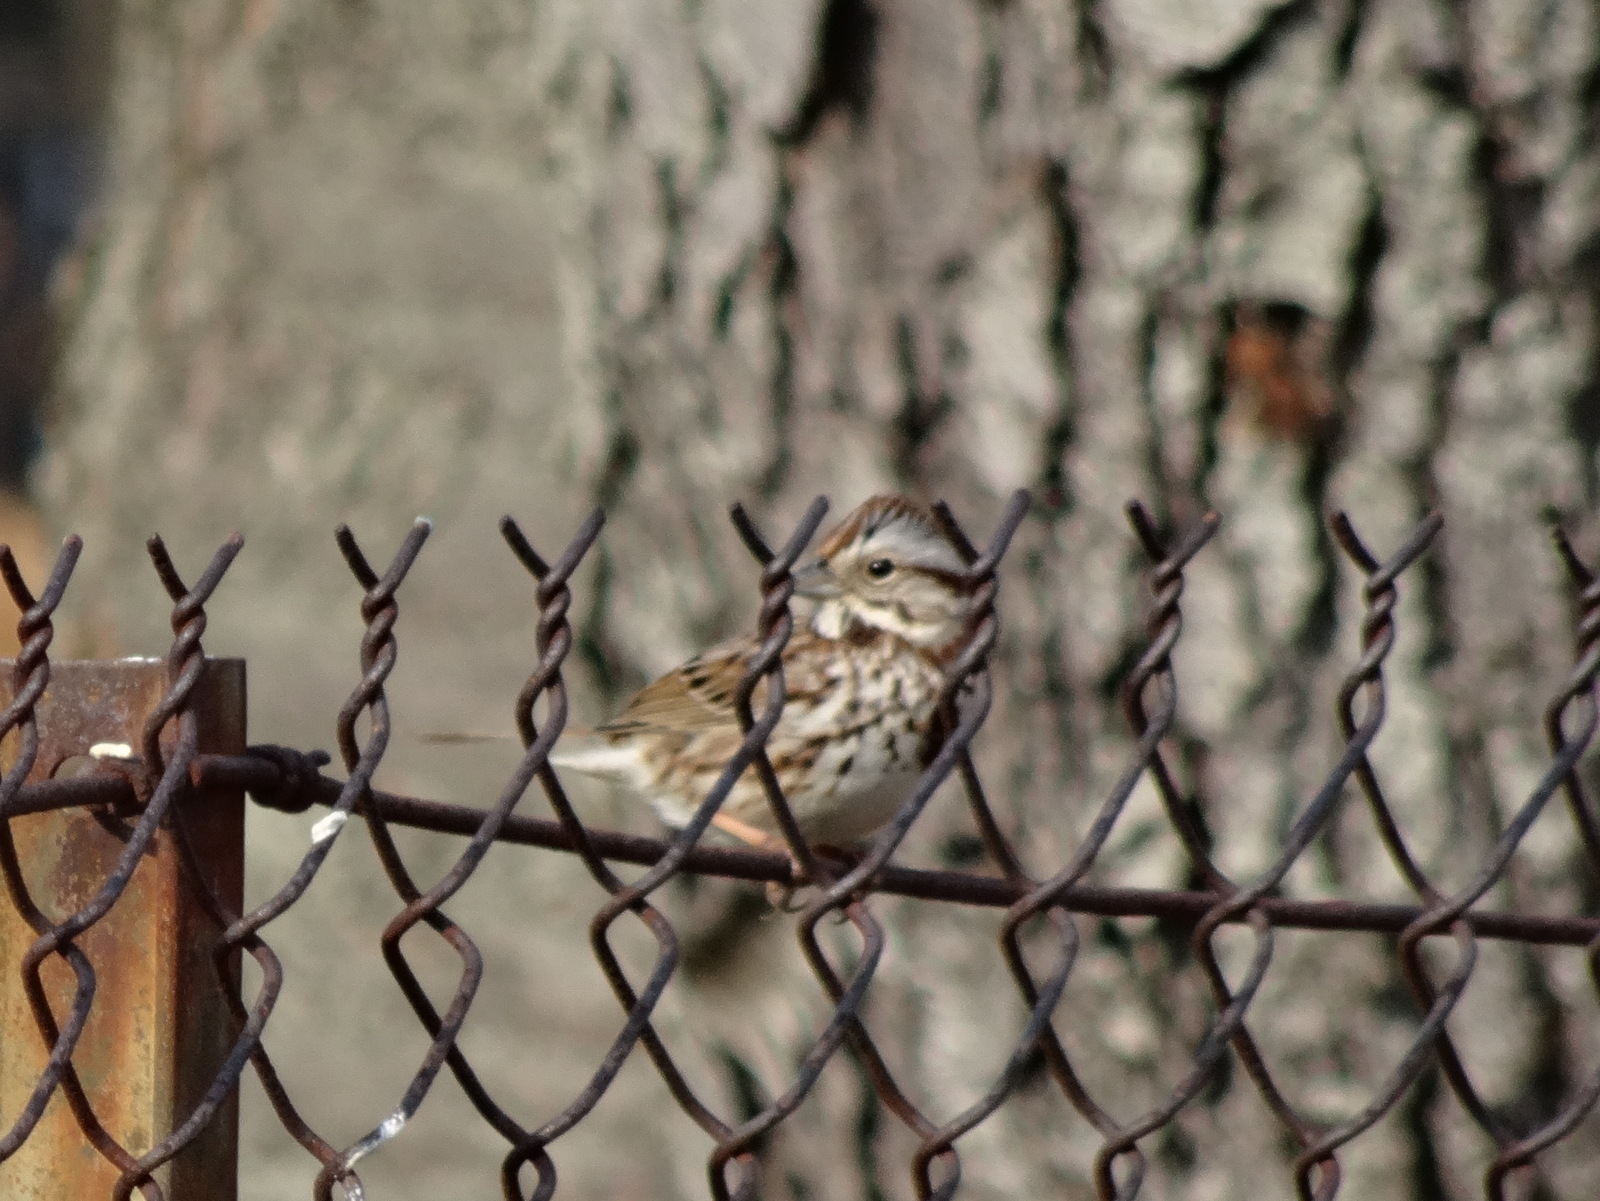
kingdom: Animalia
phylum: Chordata
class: Aves
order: Passeriformes
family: Passerellidae
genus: Melospiza
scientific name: Melospiza melodia
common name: Song sparrow
